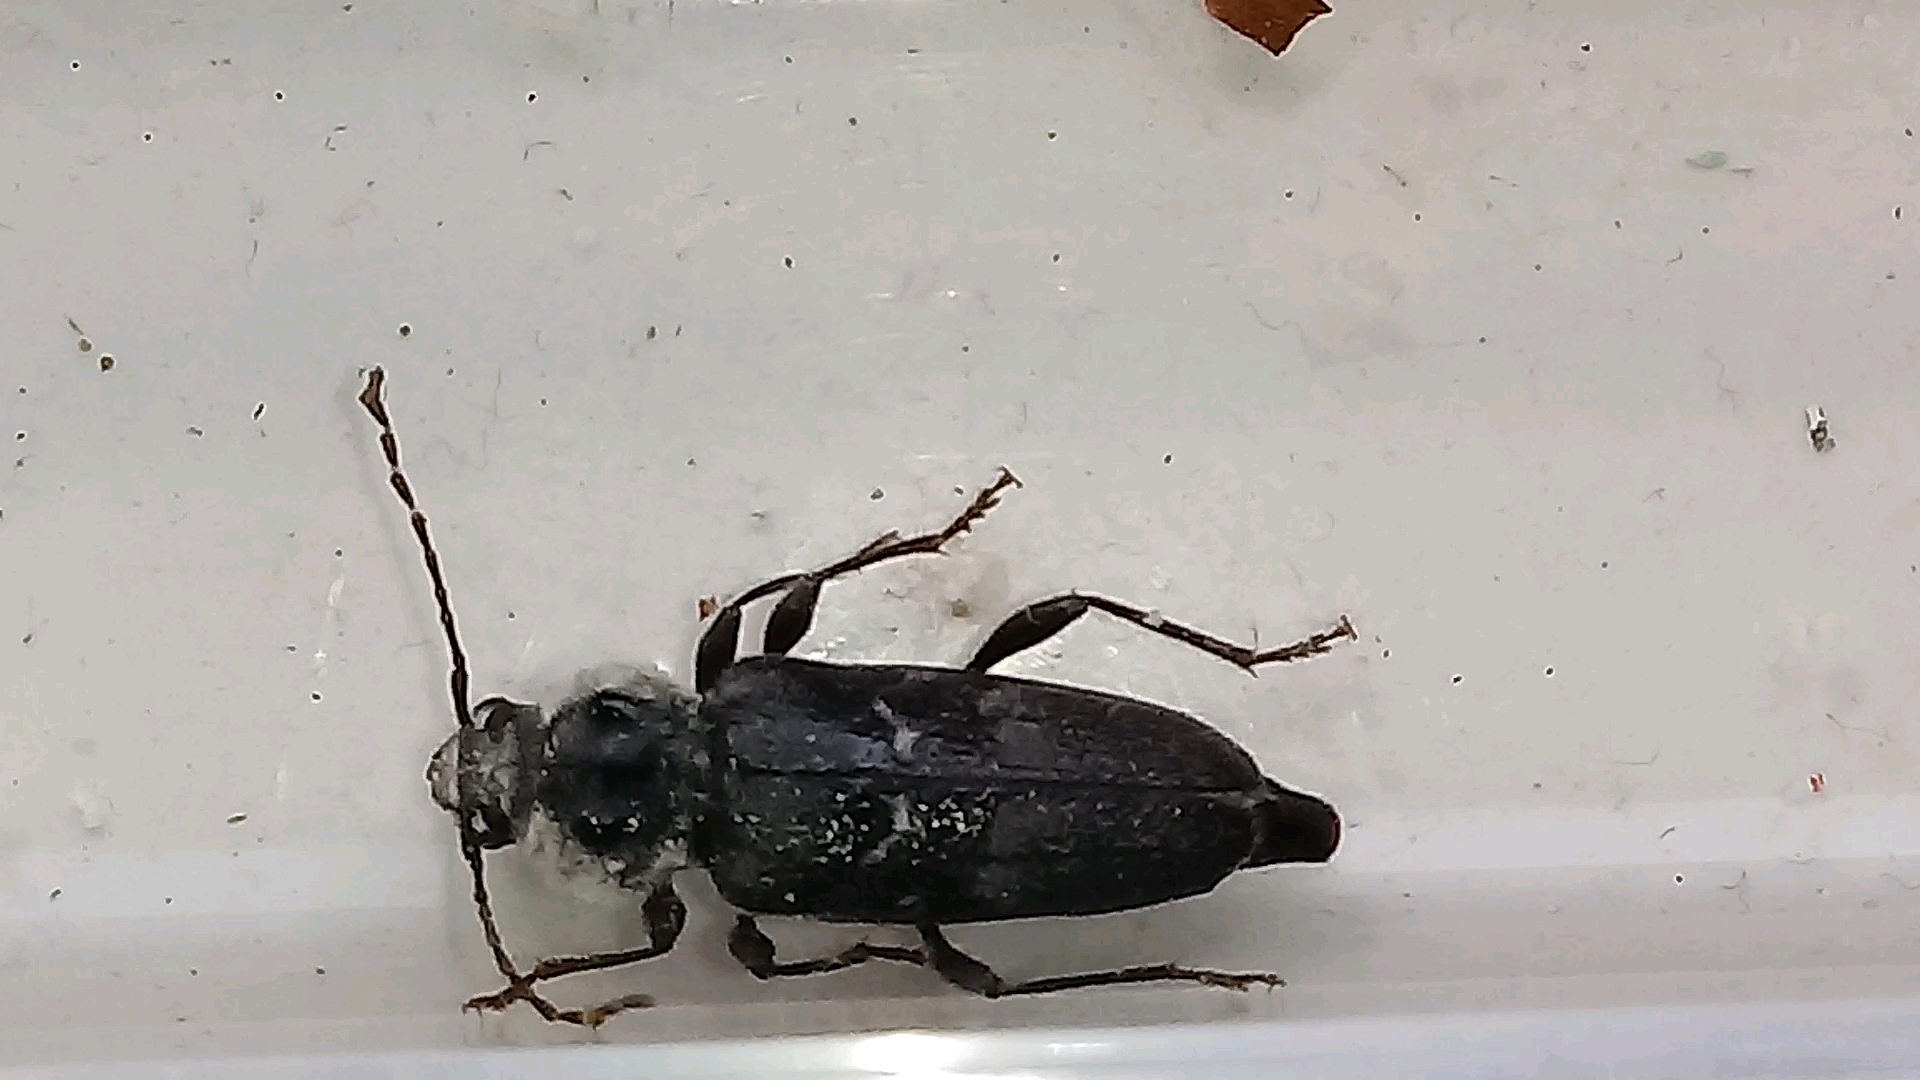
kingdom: Animalia
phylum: Arthropoda
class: Insecta
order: Coleoptera
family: Cerambycidae
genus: Hylotrupes
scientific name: Hylotrupes bajulus
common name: Old house borer
